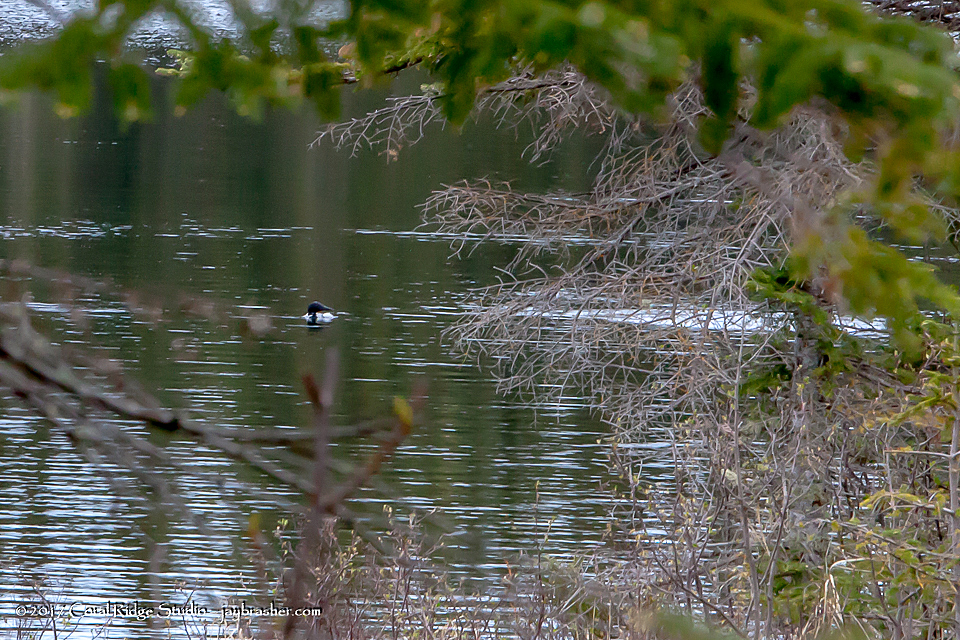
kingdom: Animalia
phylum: Chordata
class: Aves
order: Gaviiformes
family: Gaviidae
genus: Gavia
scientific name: Gavia immer
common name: Common loon
